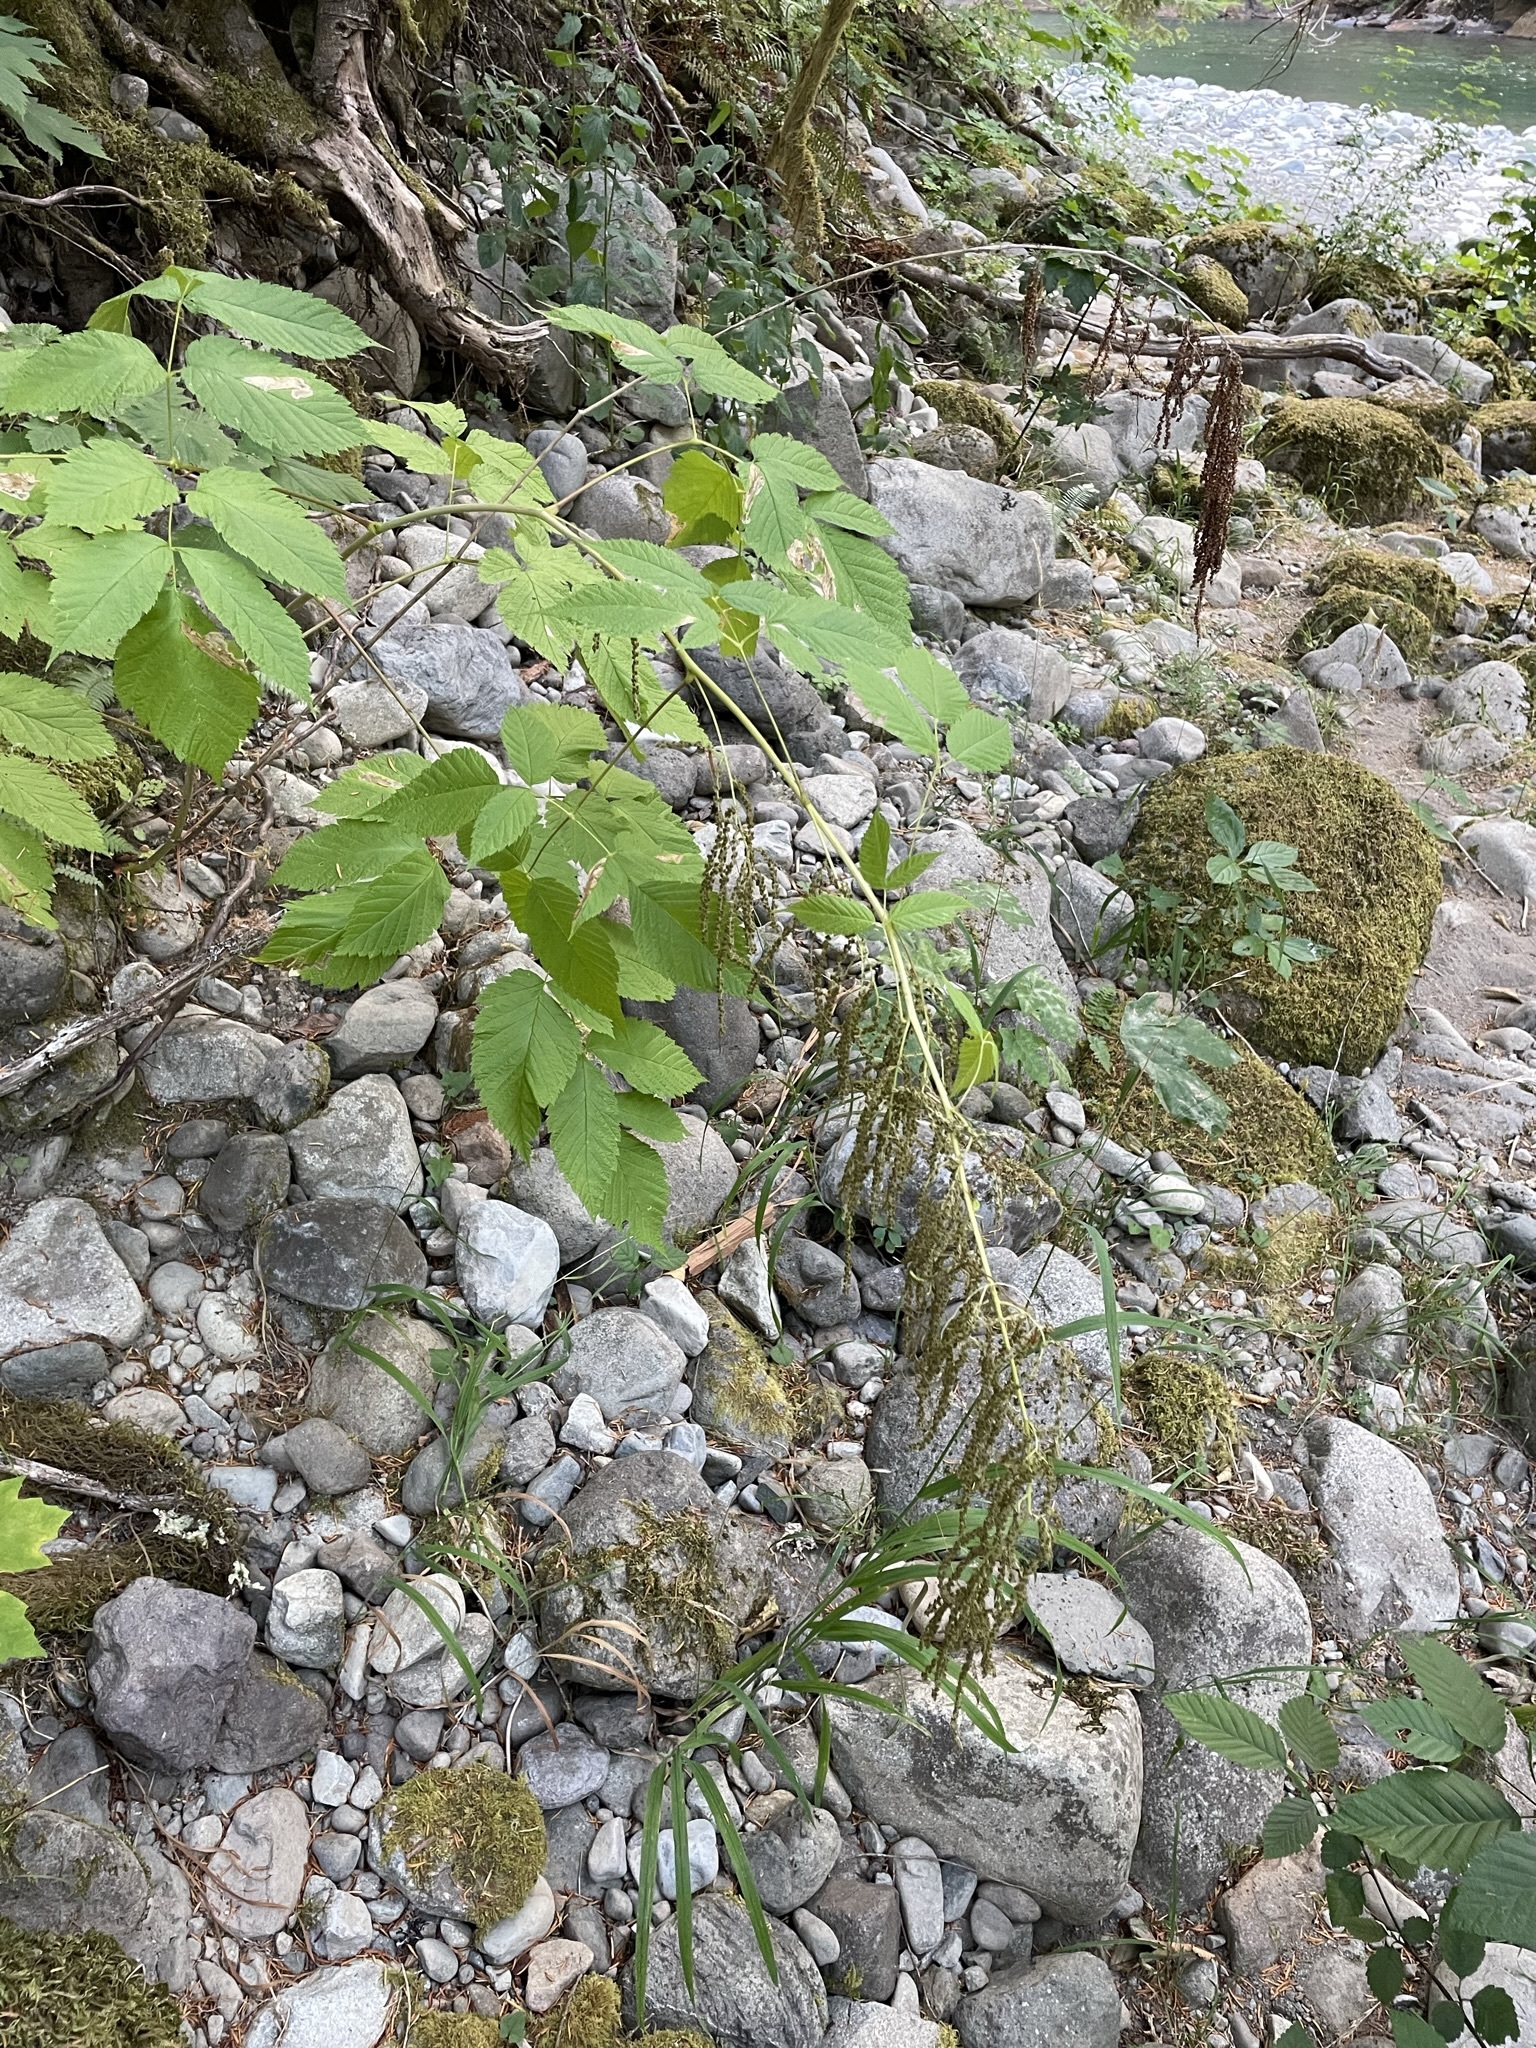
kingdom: Plantae
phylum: Tracheophyta
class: Magnoliopsida
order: Rosales
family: Rosaceae
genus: Aruncus
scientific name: Aruncus dioicus
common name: Buck's-beard
